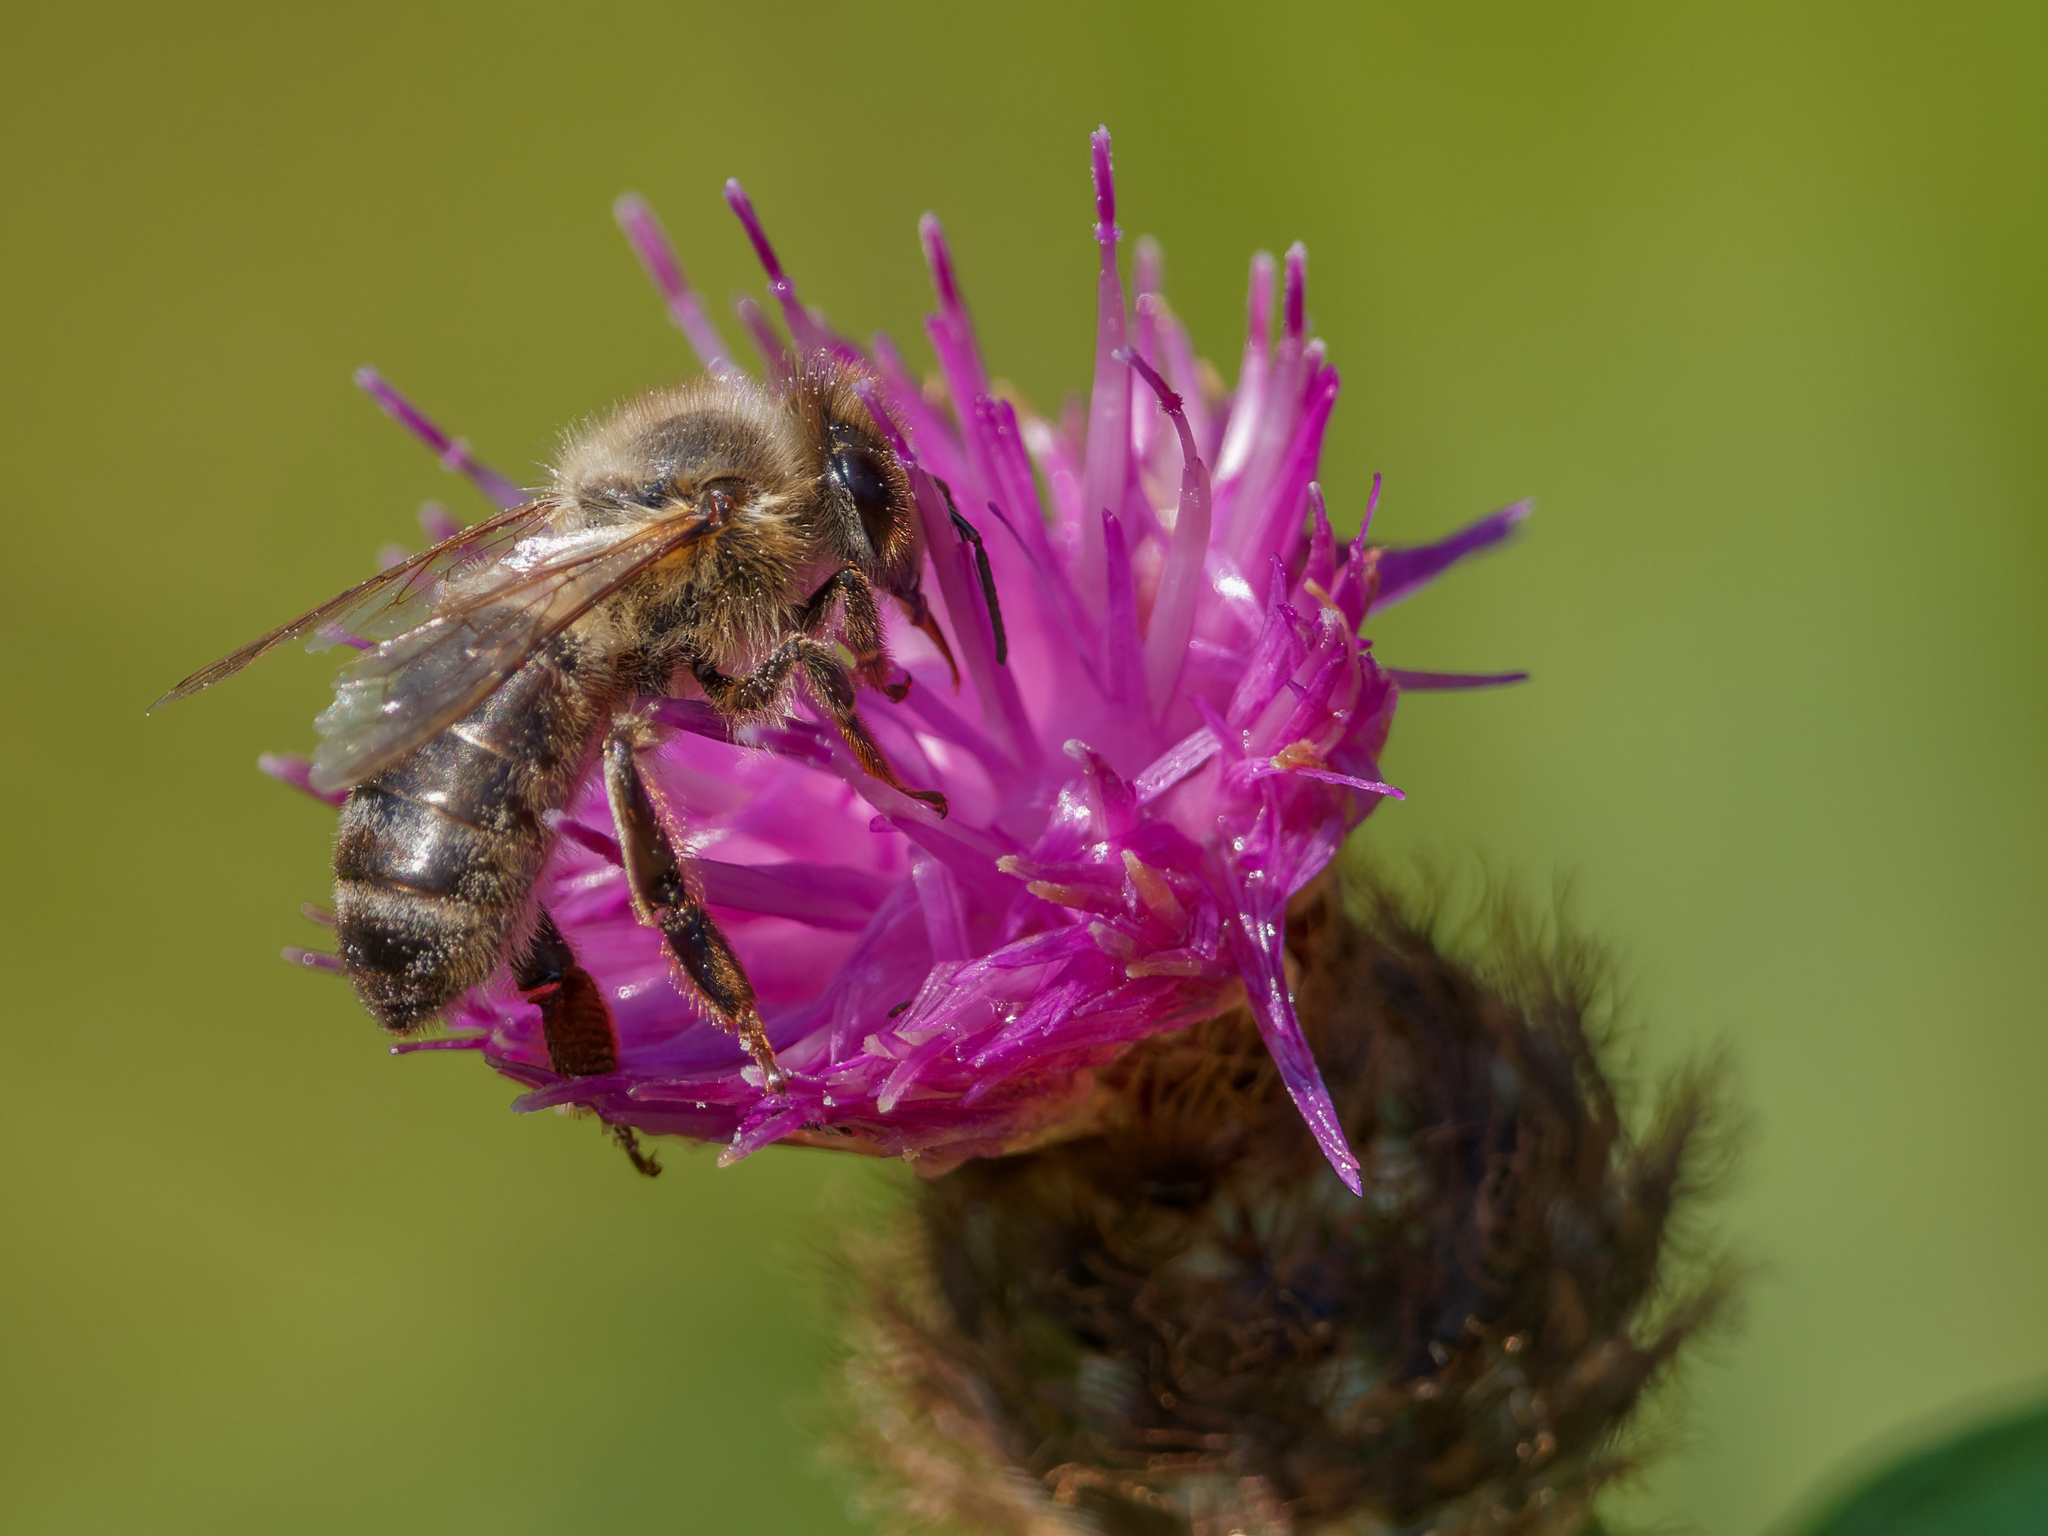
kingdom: Animalia
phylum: Arthropoda
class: Insecta
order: Hymenoptera
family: Apidae
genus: Apis
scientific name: Apis mellifera
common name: Honey bee
